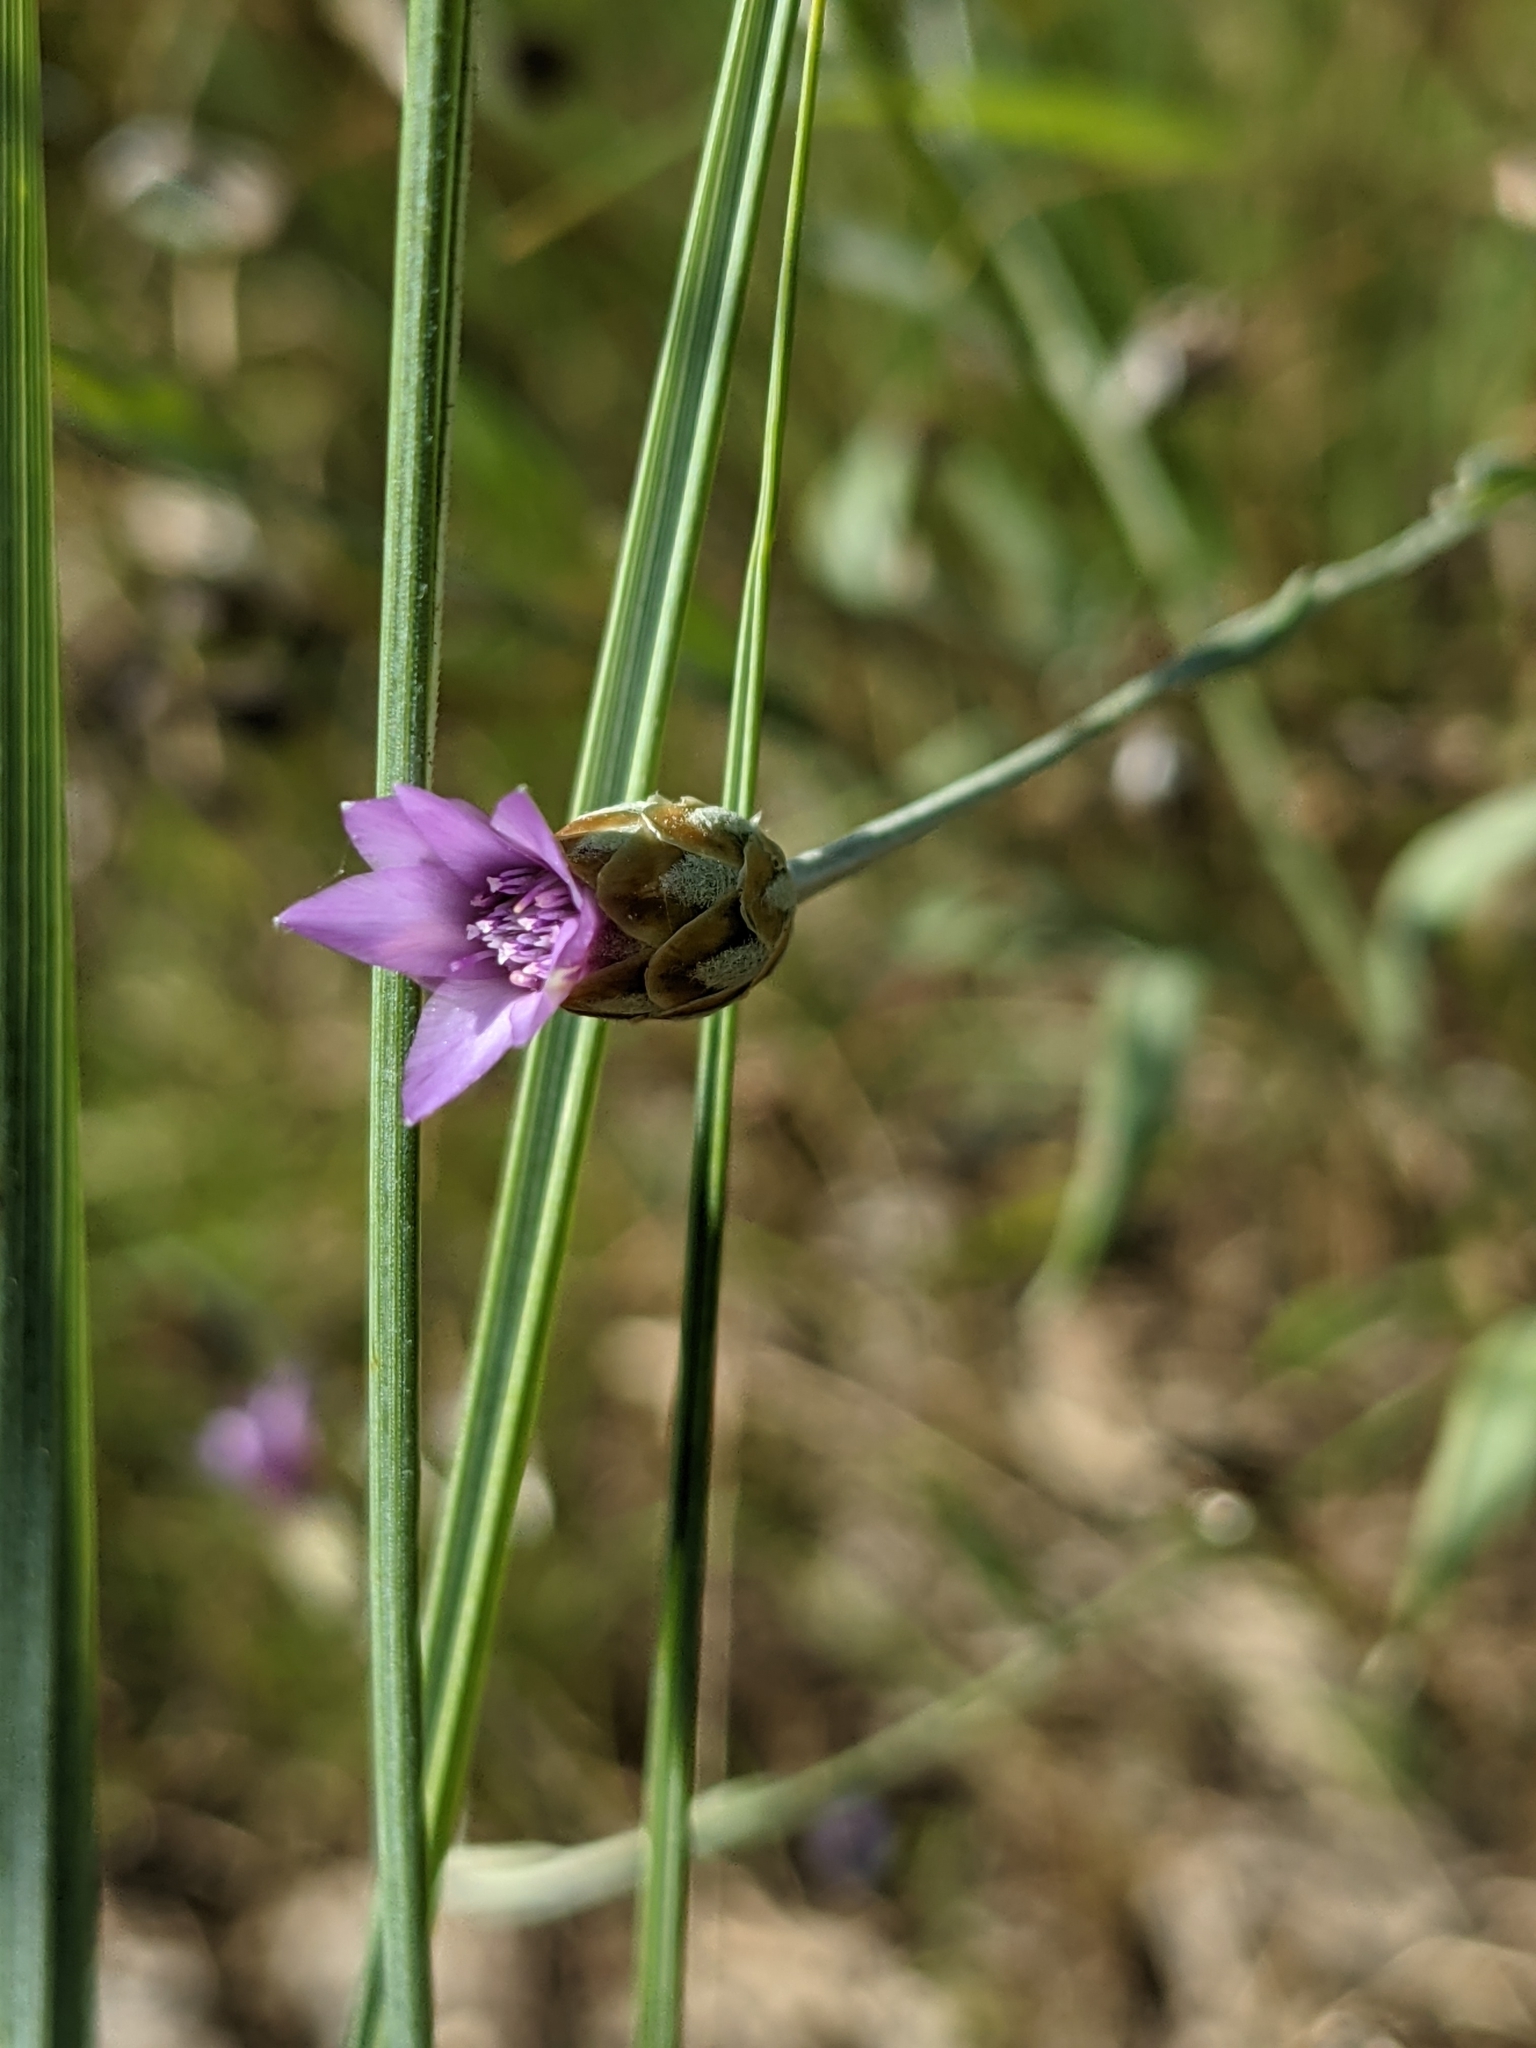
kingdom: Plantae
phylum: Tracheophyta
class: Magnoliopsida
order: Asterales
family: Asteraceae
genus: Xeranthemum
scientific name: Xeranthemum cylindraceum
